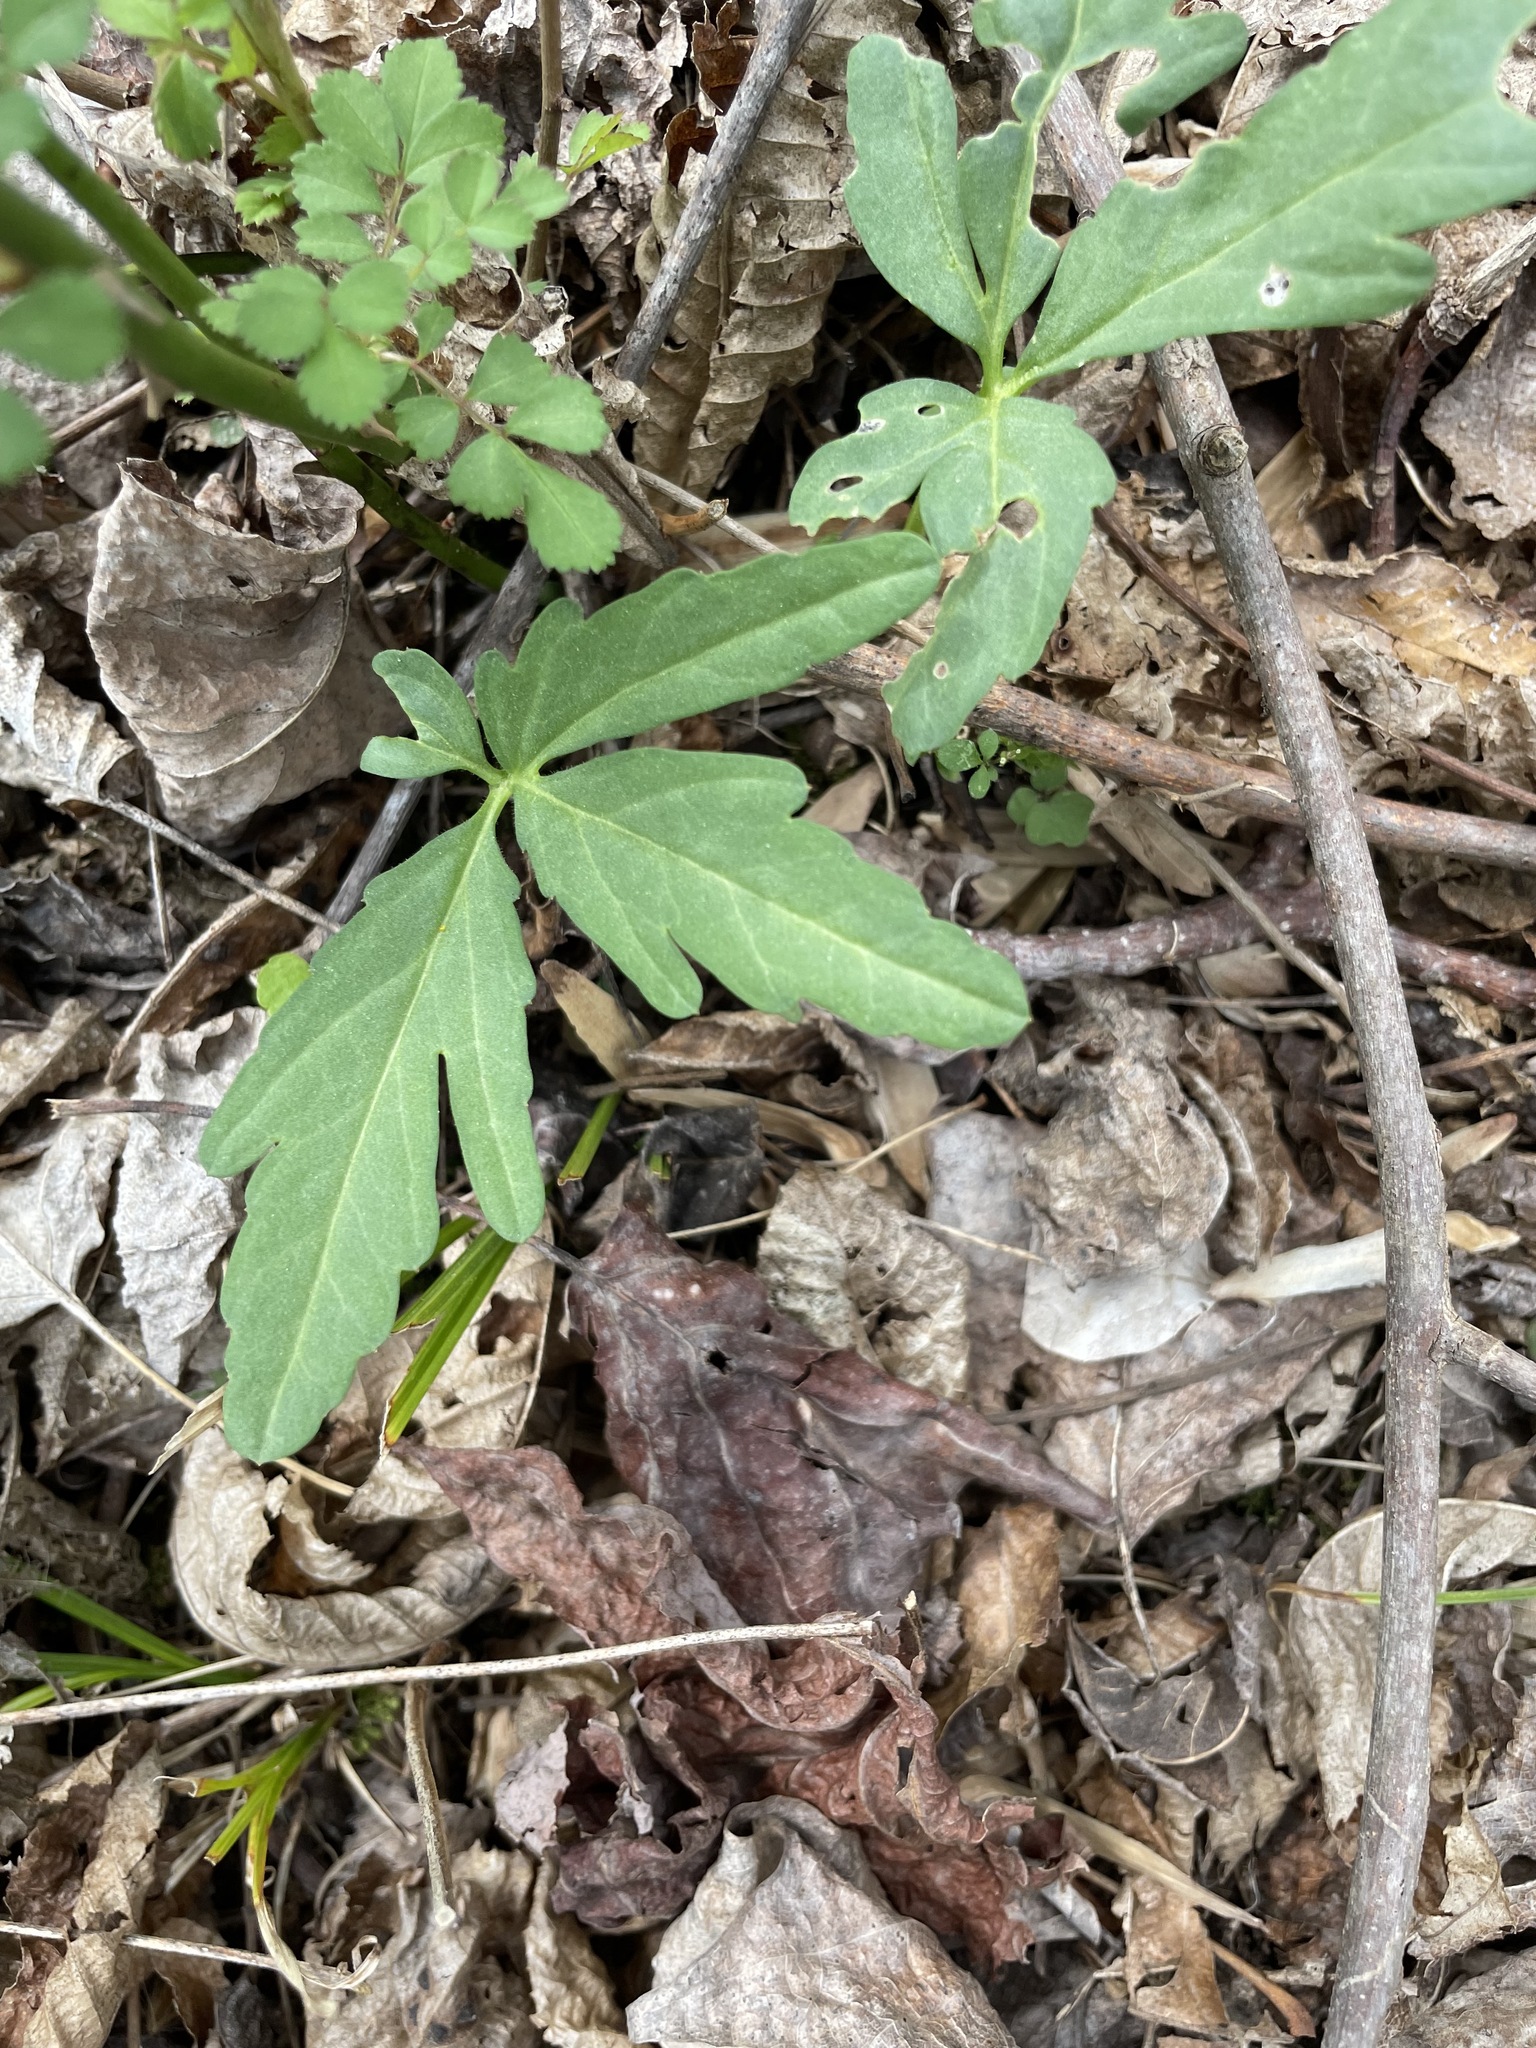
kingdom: Plantae
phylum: Tracheophyta
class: Magnoliopsida
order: Brassicales
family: Brassicaceae
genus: Cardamine
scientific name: Cardamine concatenata
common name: Cut-leaf toothcup
